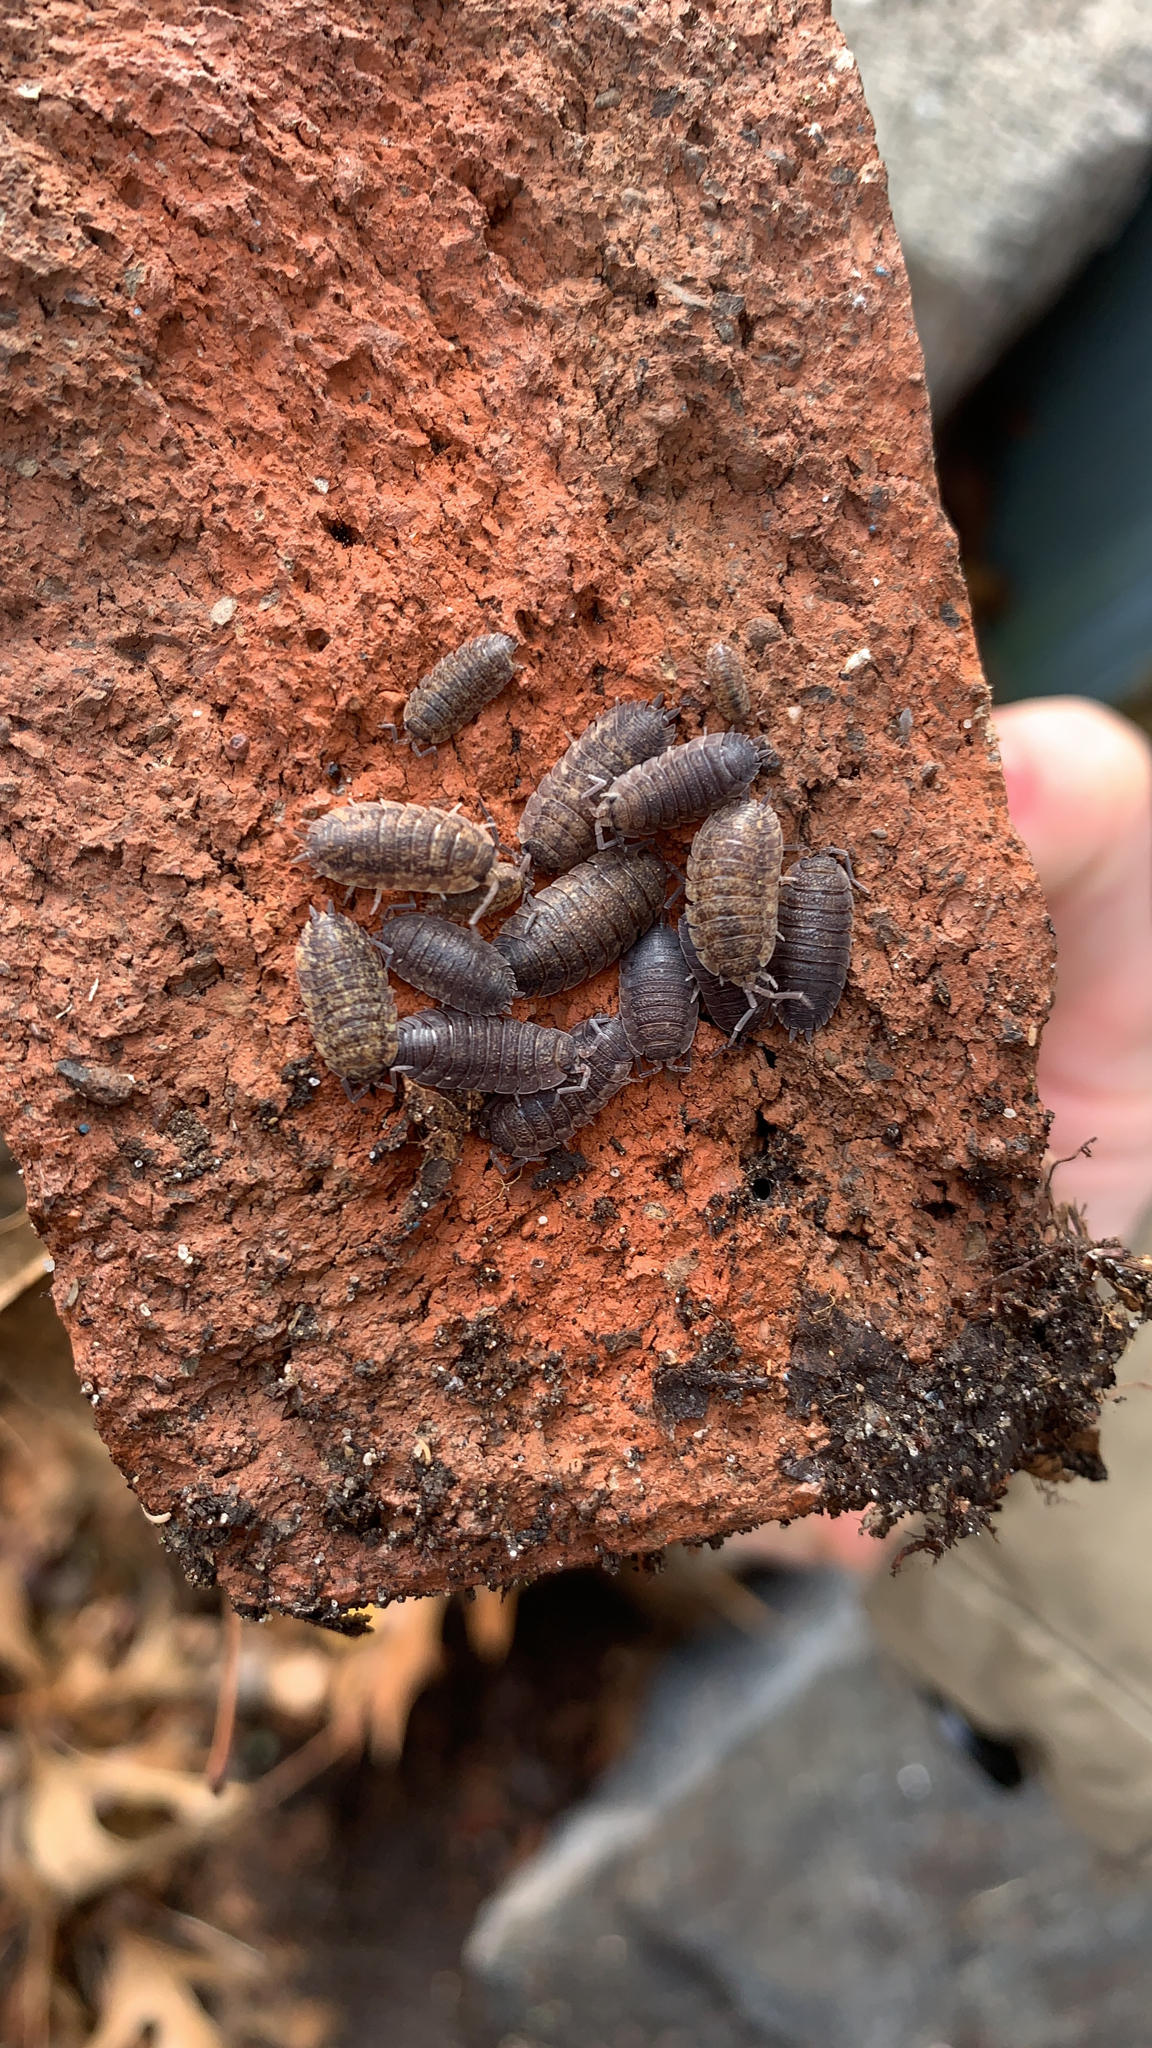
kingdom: Animalia
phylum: Arthropoda
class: Malacostraca
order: Isopoda
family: Porcellionidae
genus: Porcellio
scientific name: Porcellio scaber
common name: Common rough woodlouse
